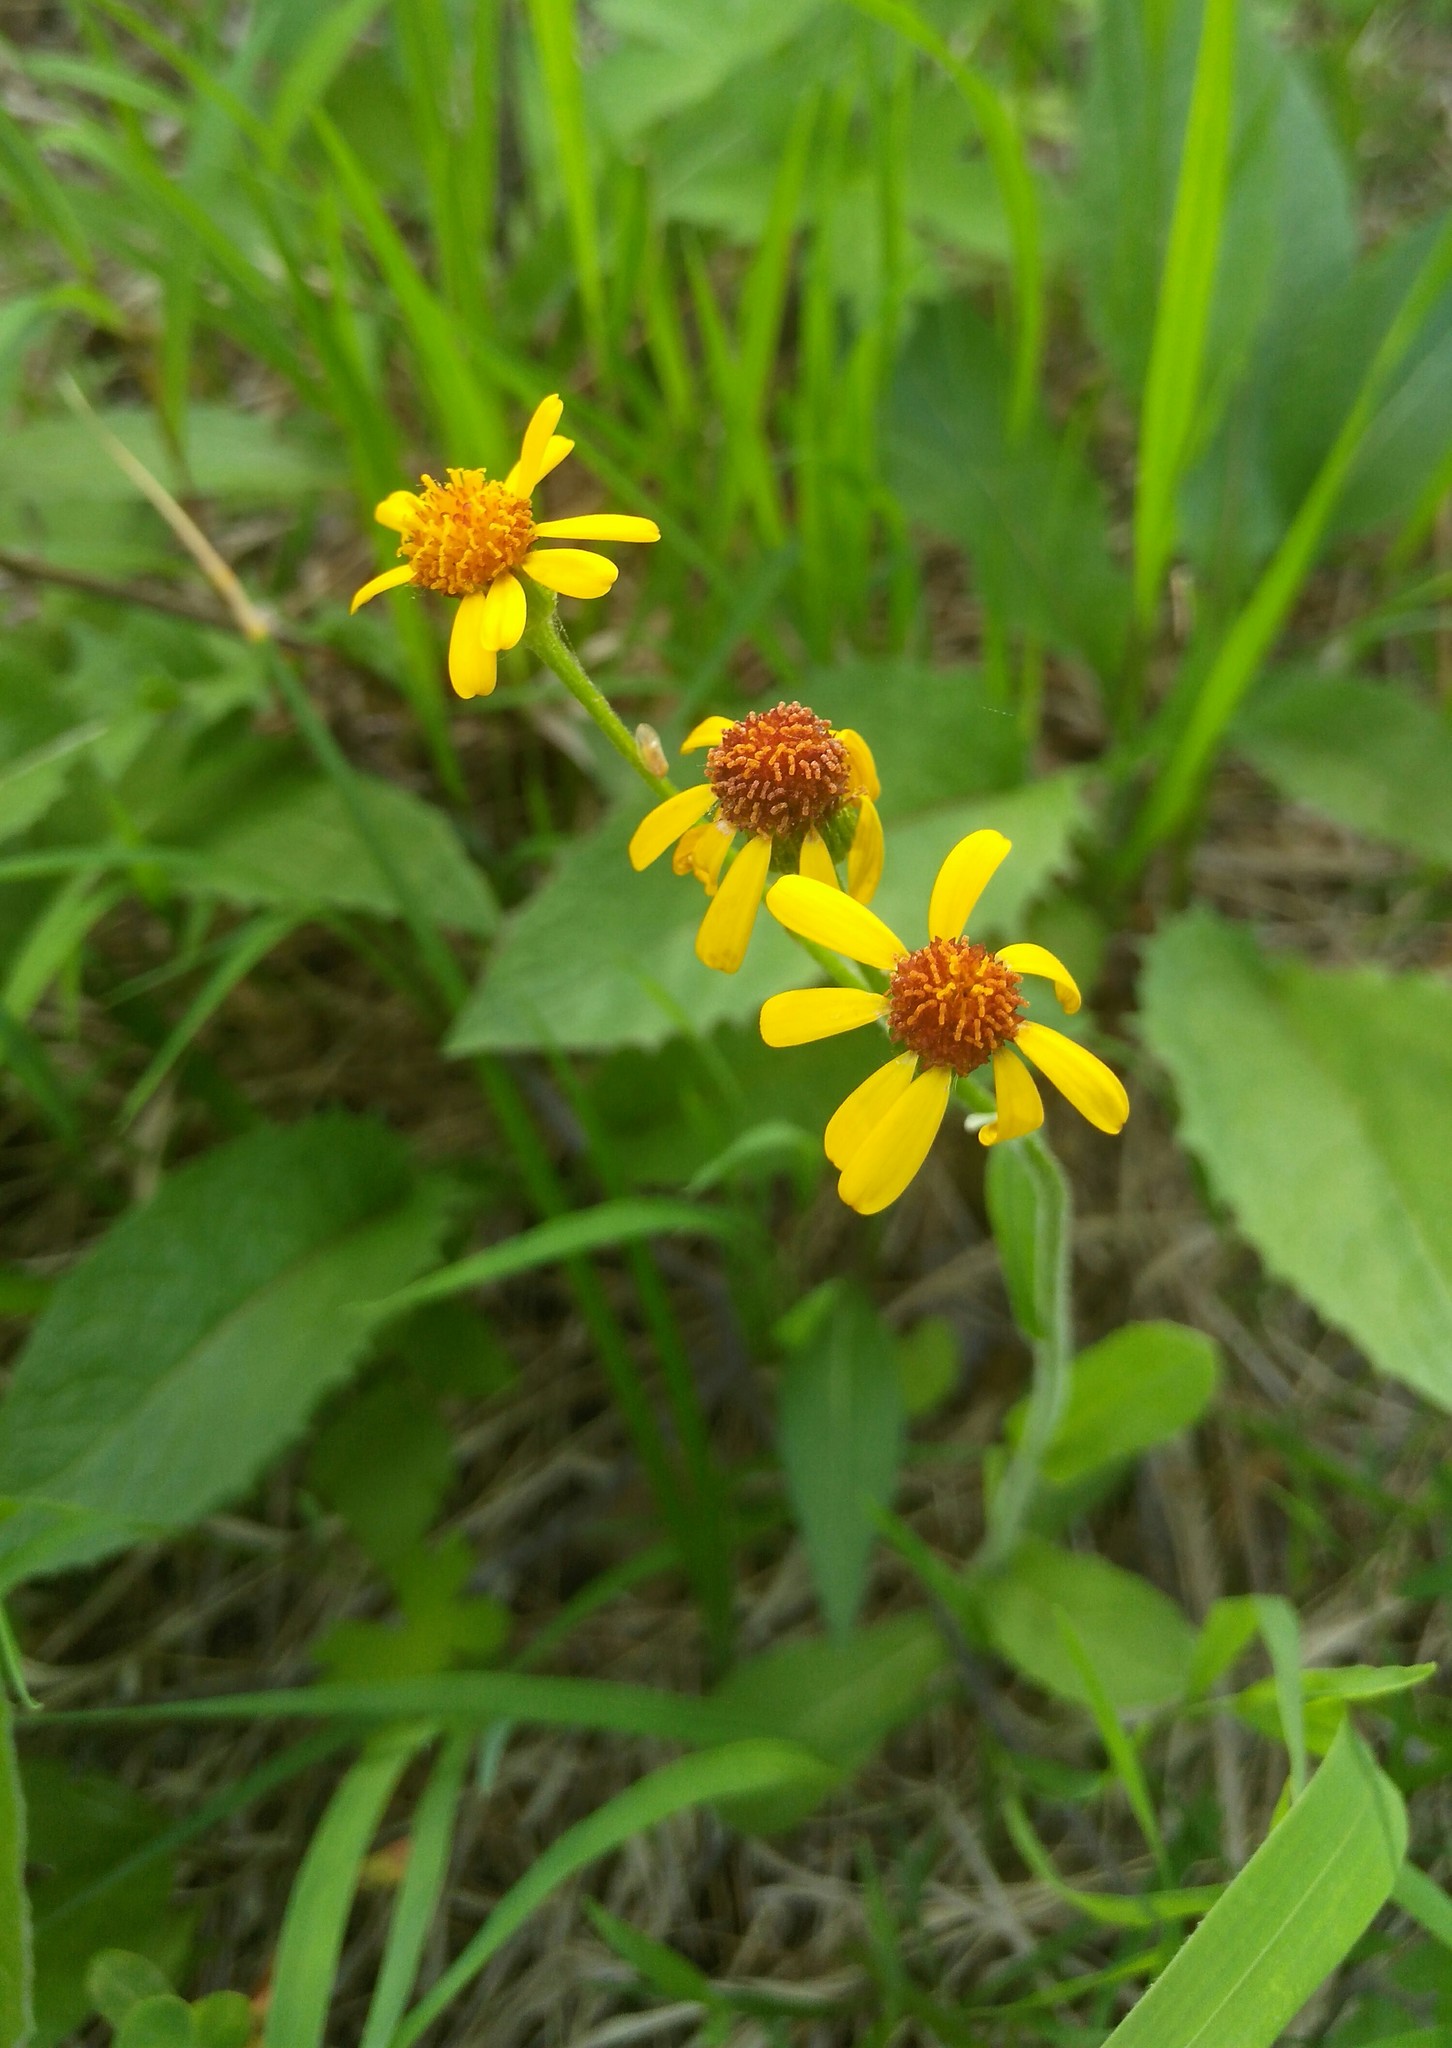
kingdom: Plantae
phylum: Tracheophyta
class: Magnoliopsida
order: Asterales
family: Asteraceae
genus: Tephroseris
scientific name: Tephroseris integrifolia
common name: Field fleawort
